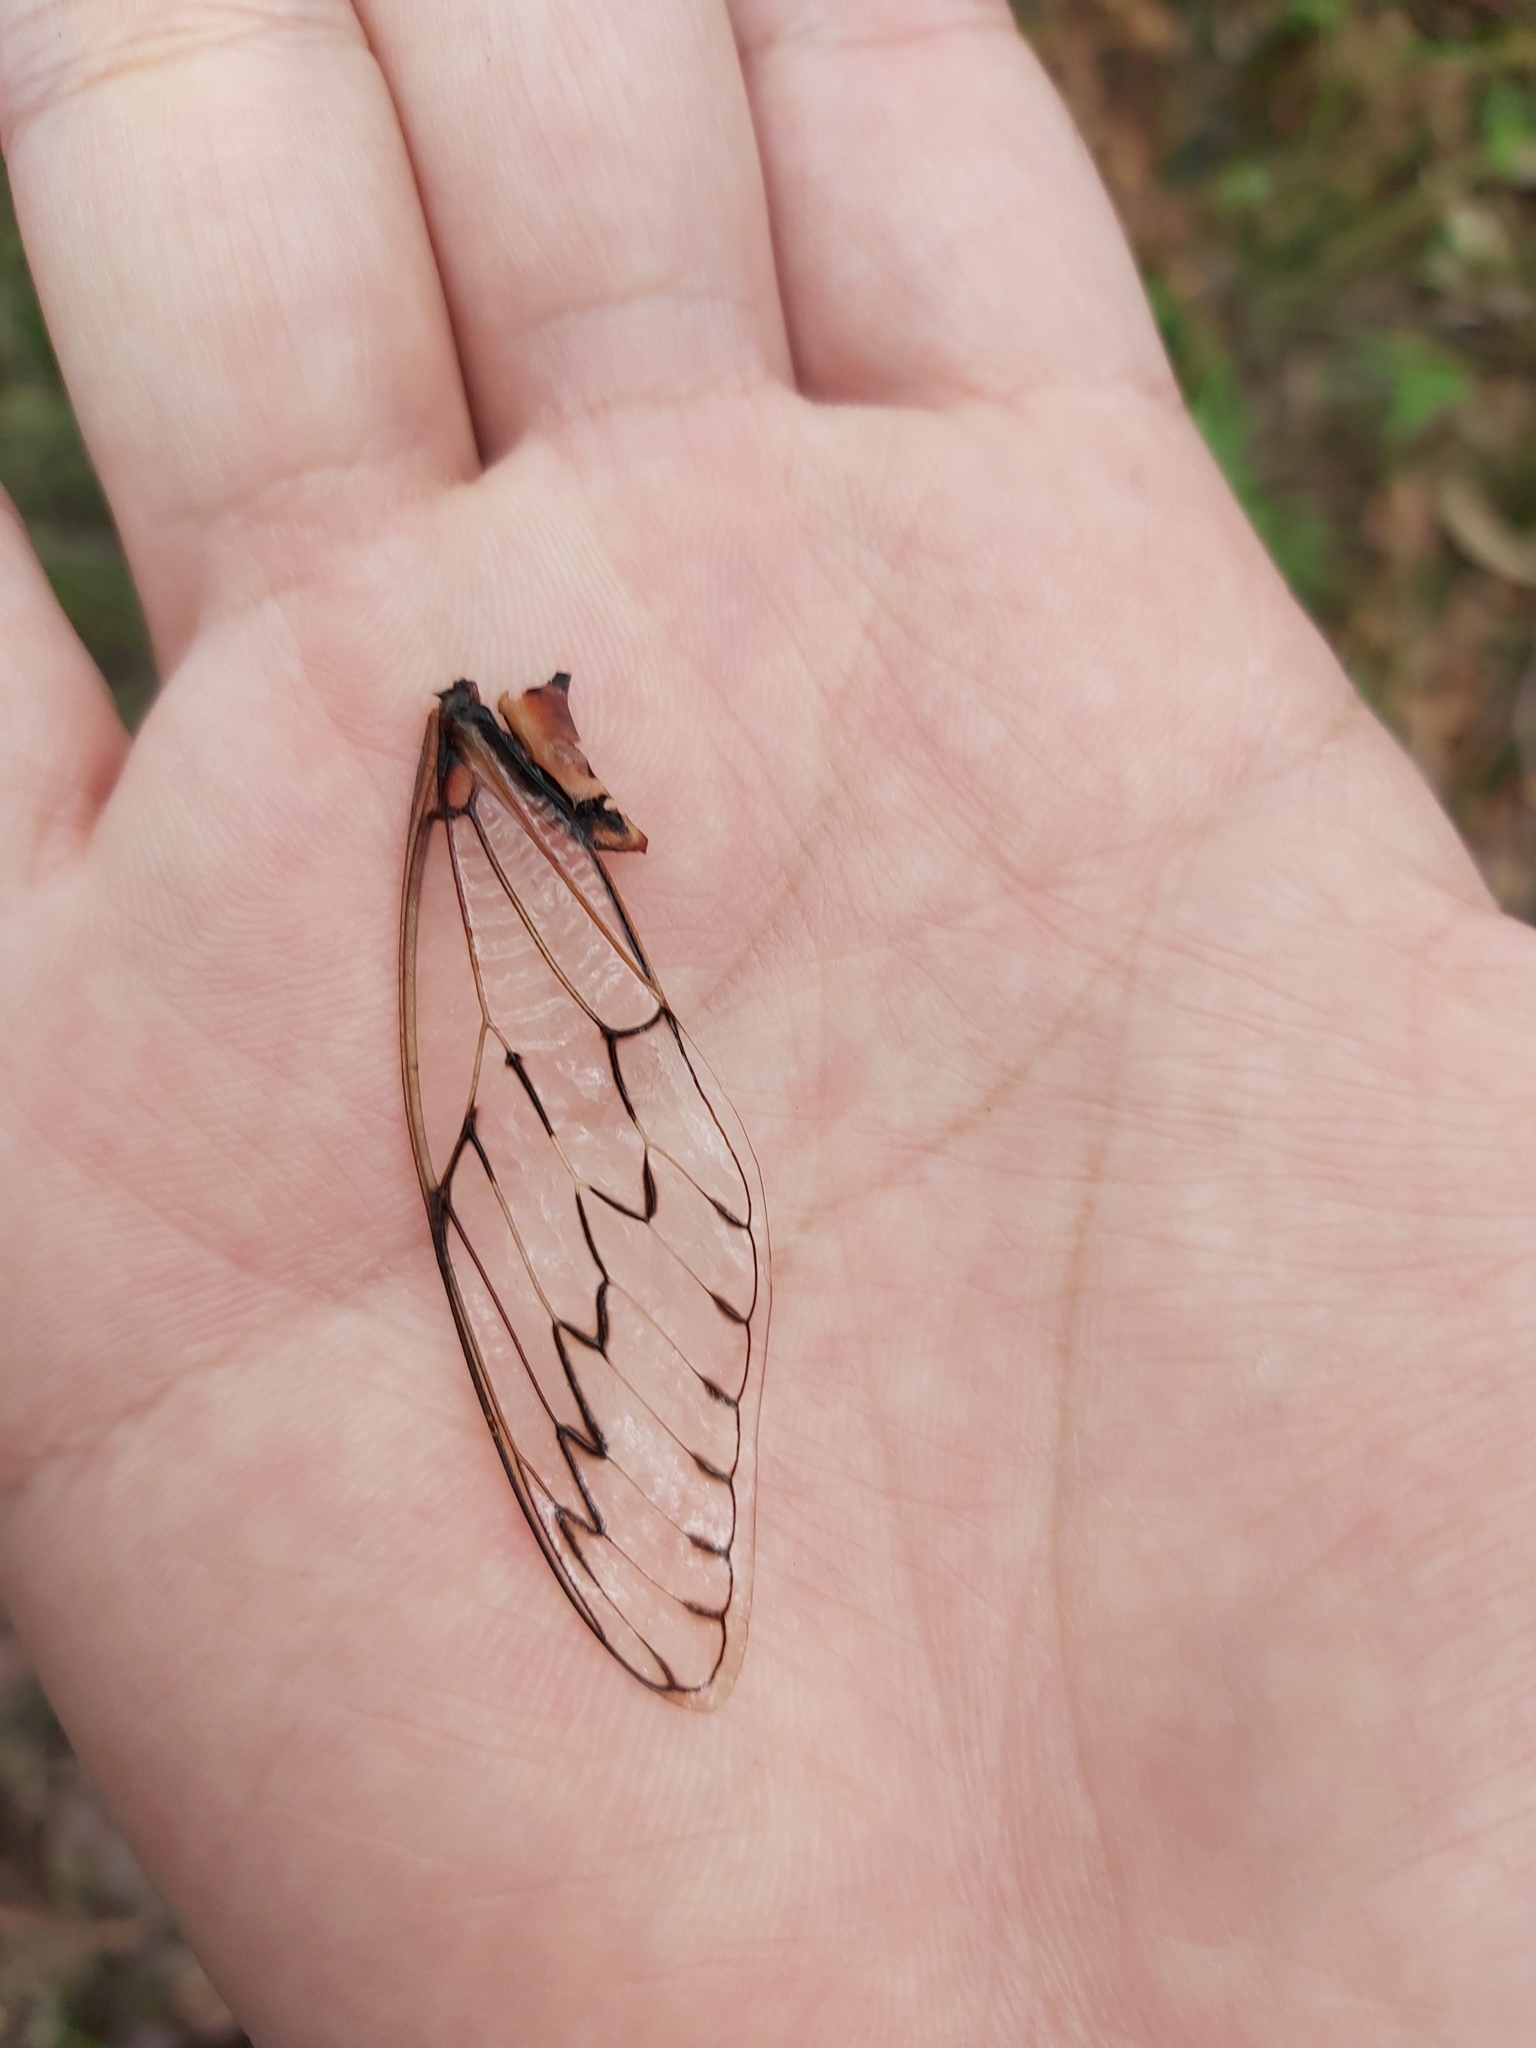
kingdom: Animalia
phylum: Arthropoda
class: Insecta
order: Hemiptera
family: Cicadidae
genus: Henicopsaltria
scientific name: Henicopsaltria eydouxii
